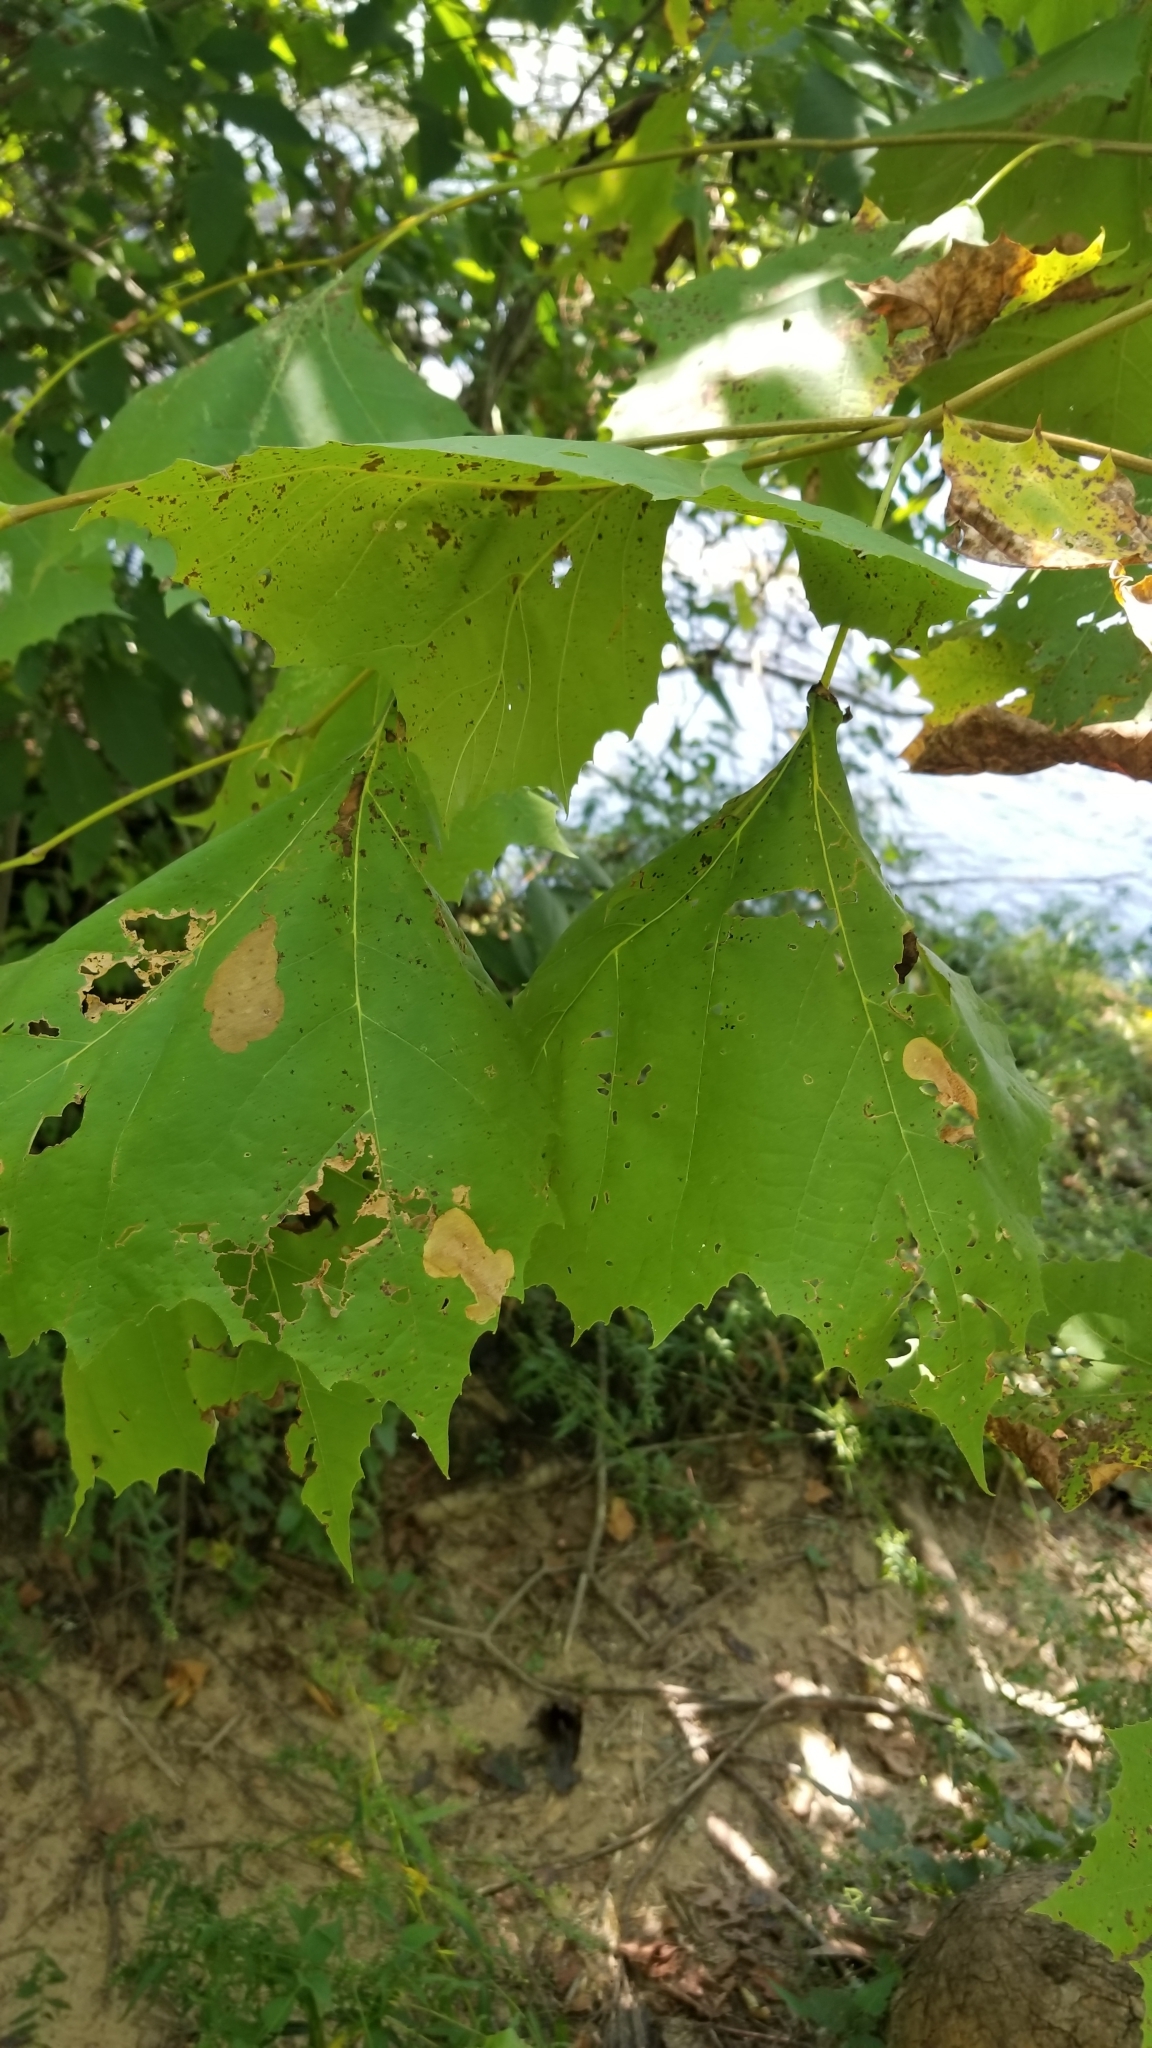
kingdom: Plantae
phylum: Tracheophyta
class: Magnoliopsida
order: Proteales
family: Platanaceae
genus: Platanus
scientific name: Platanus occidentalis
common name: American sycamore
